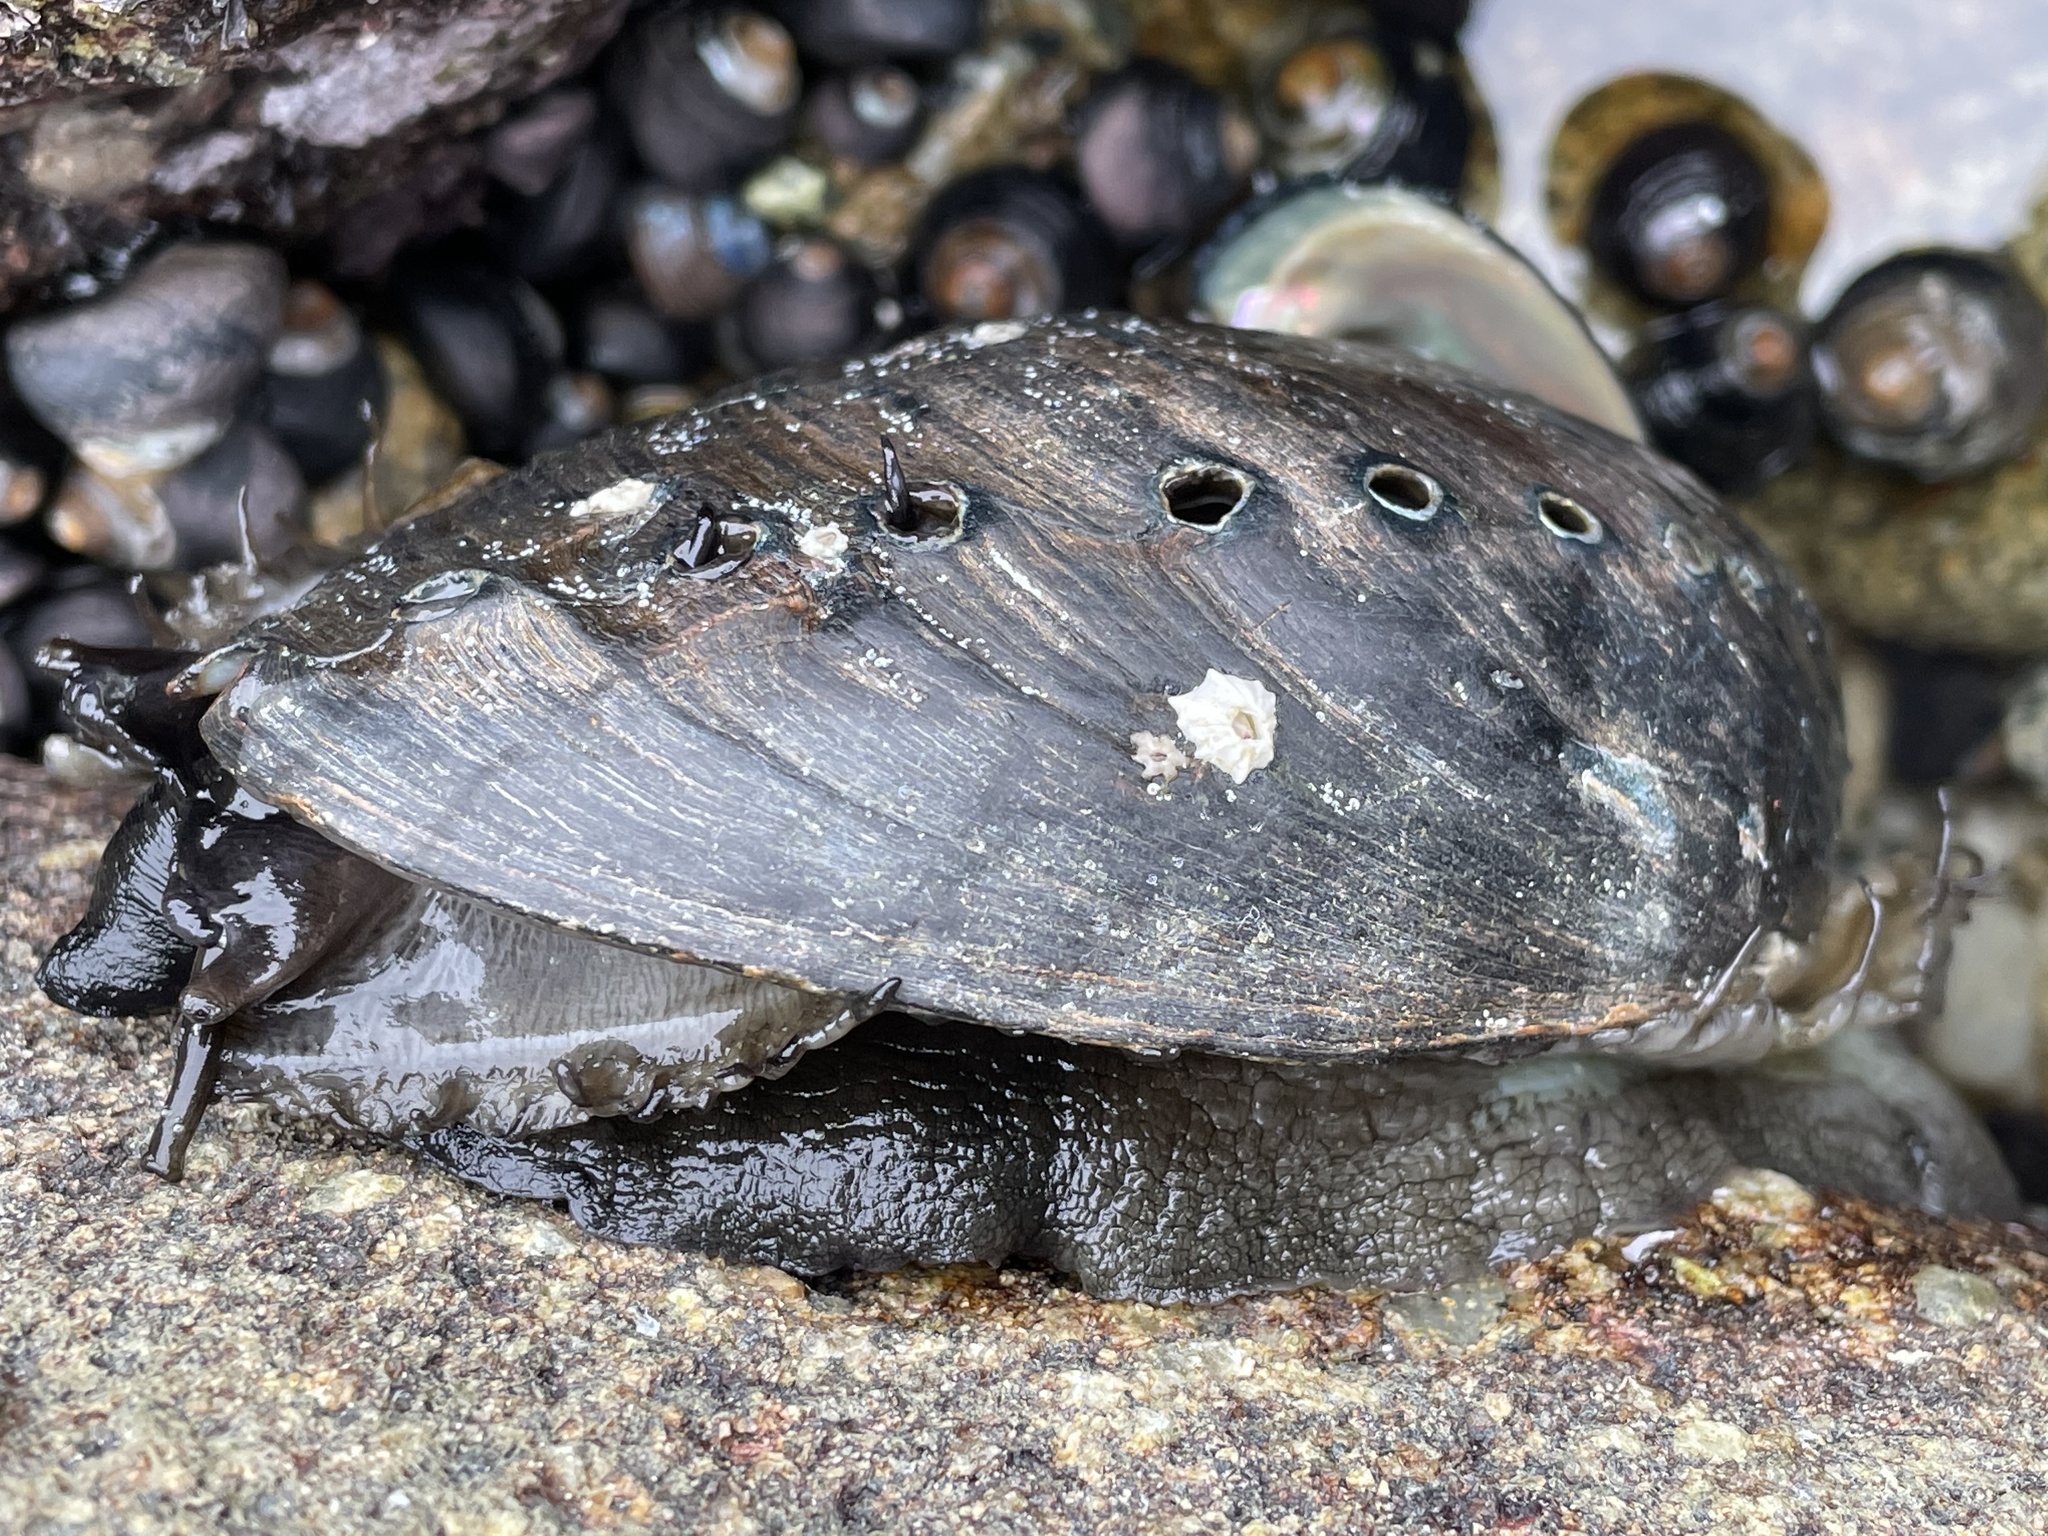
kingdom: Animalia
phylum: Mollusca
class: Gastropoda
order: Lepetellida
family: Haliotidae
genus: Haliotis
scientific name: Haliotis cracherodii
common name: Black abalone
